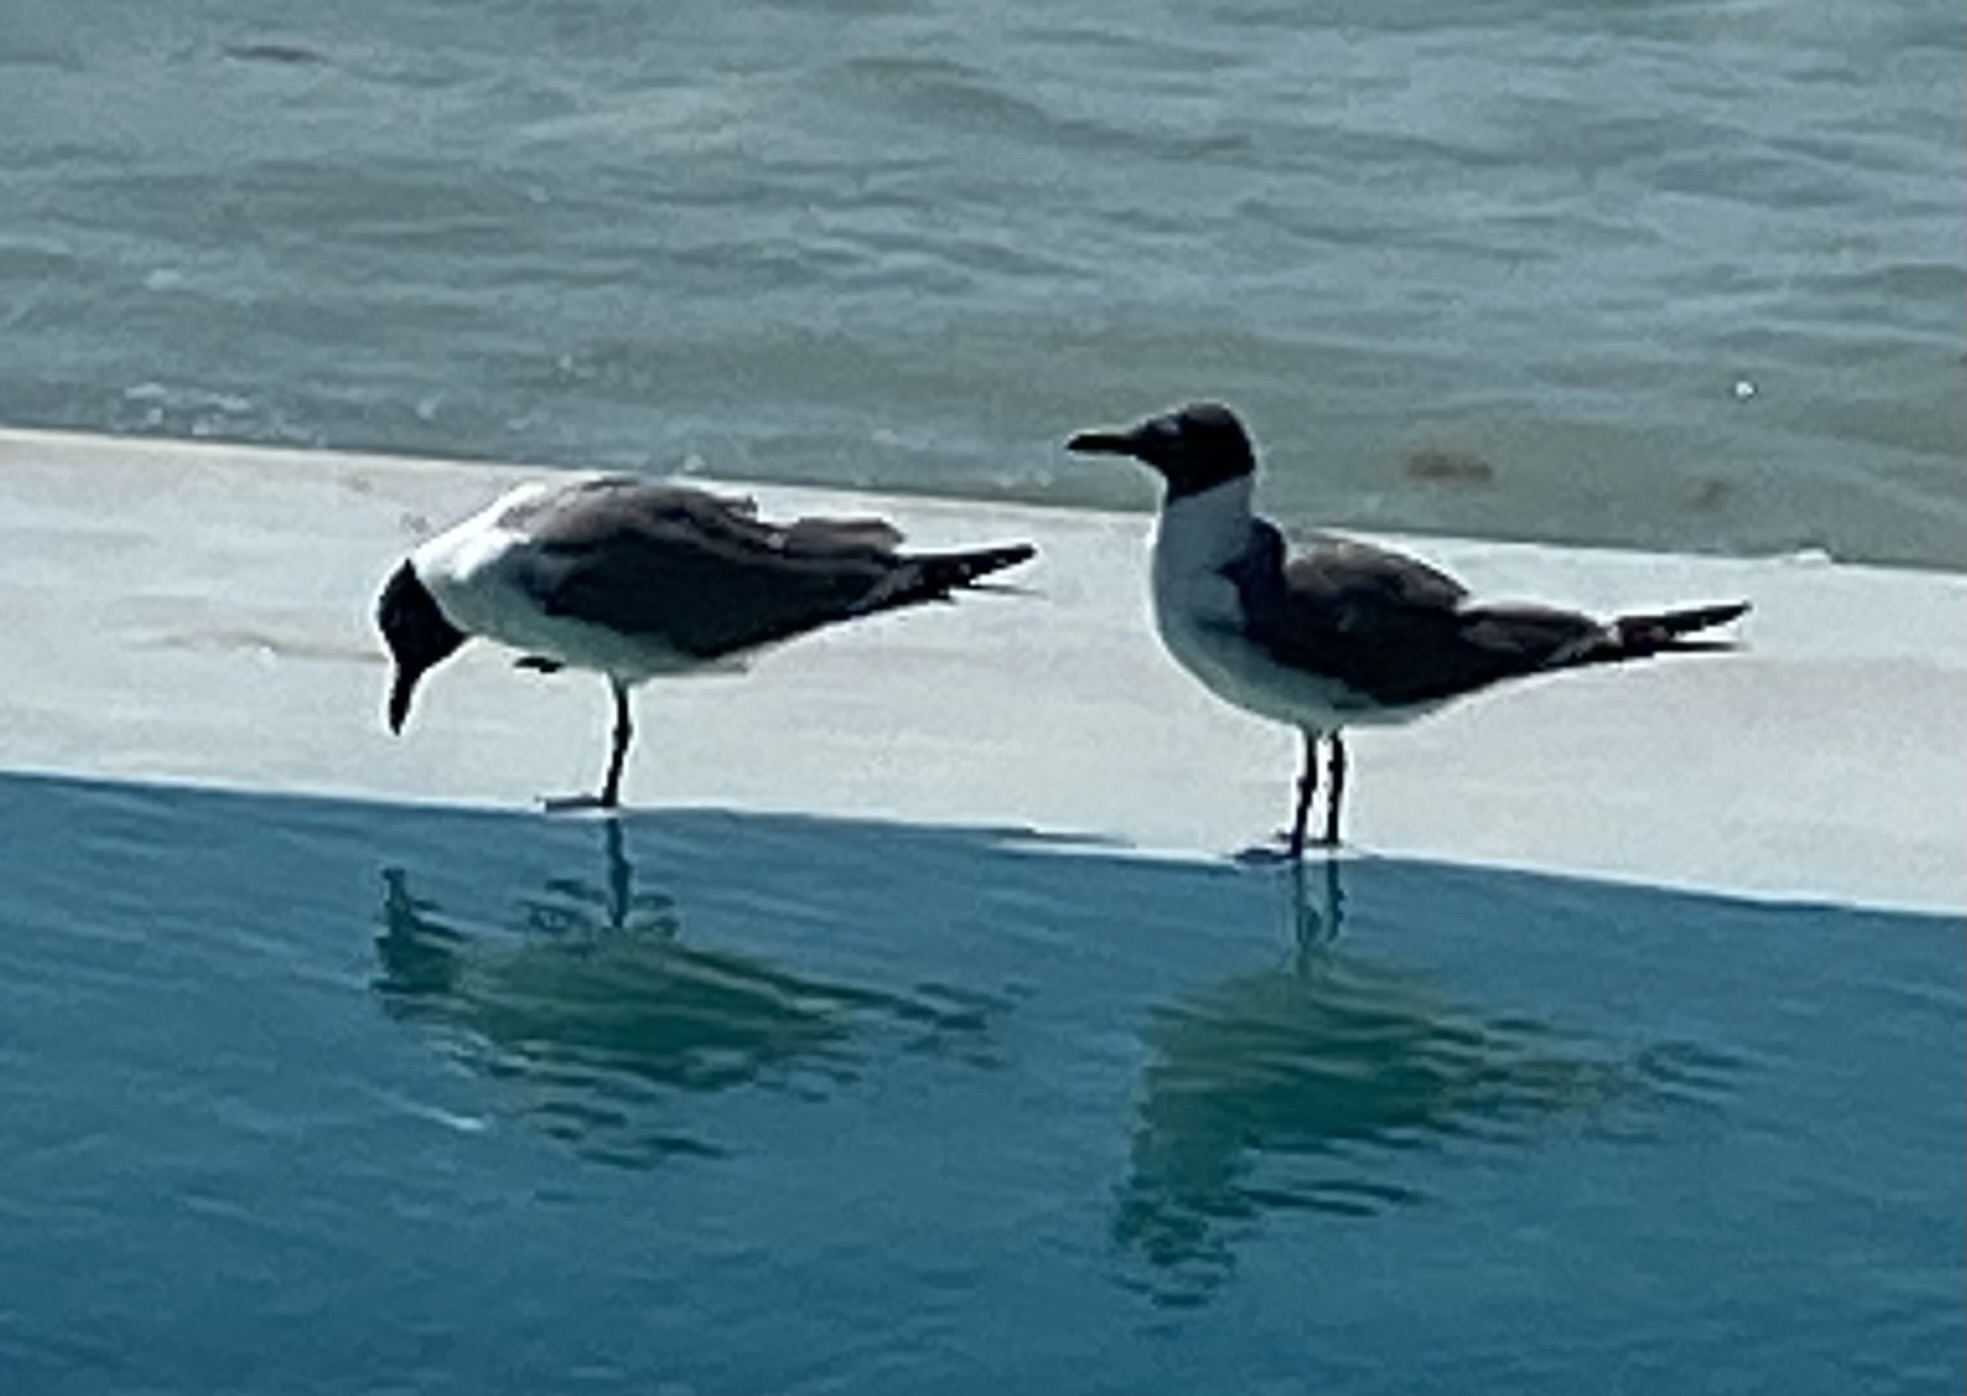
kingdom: Animalia
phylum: Chordata
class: Aves
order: Charadriiformes
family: Laridae
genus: Leucophaeus
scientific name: Leucophaeus atricilla
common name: Laughing gull
